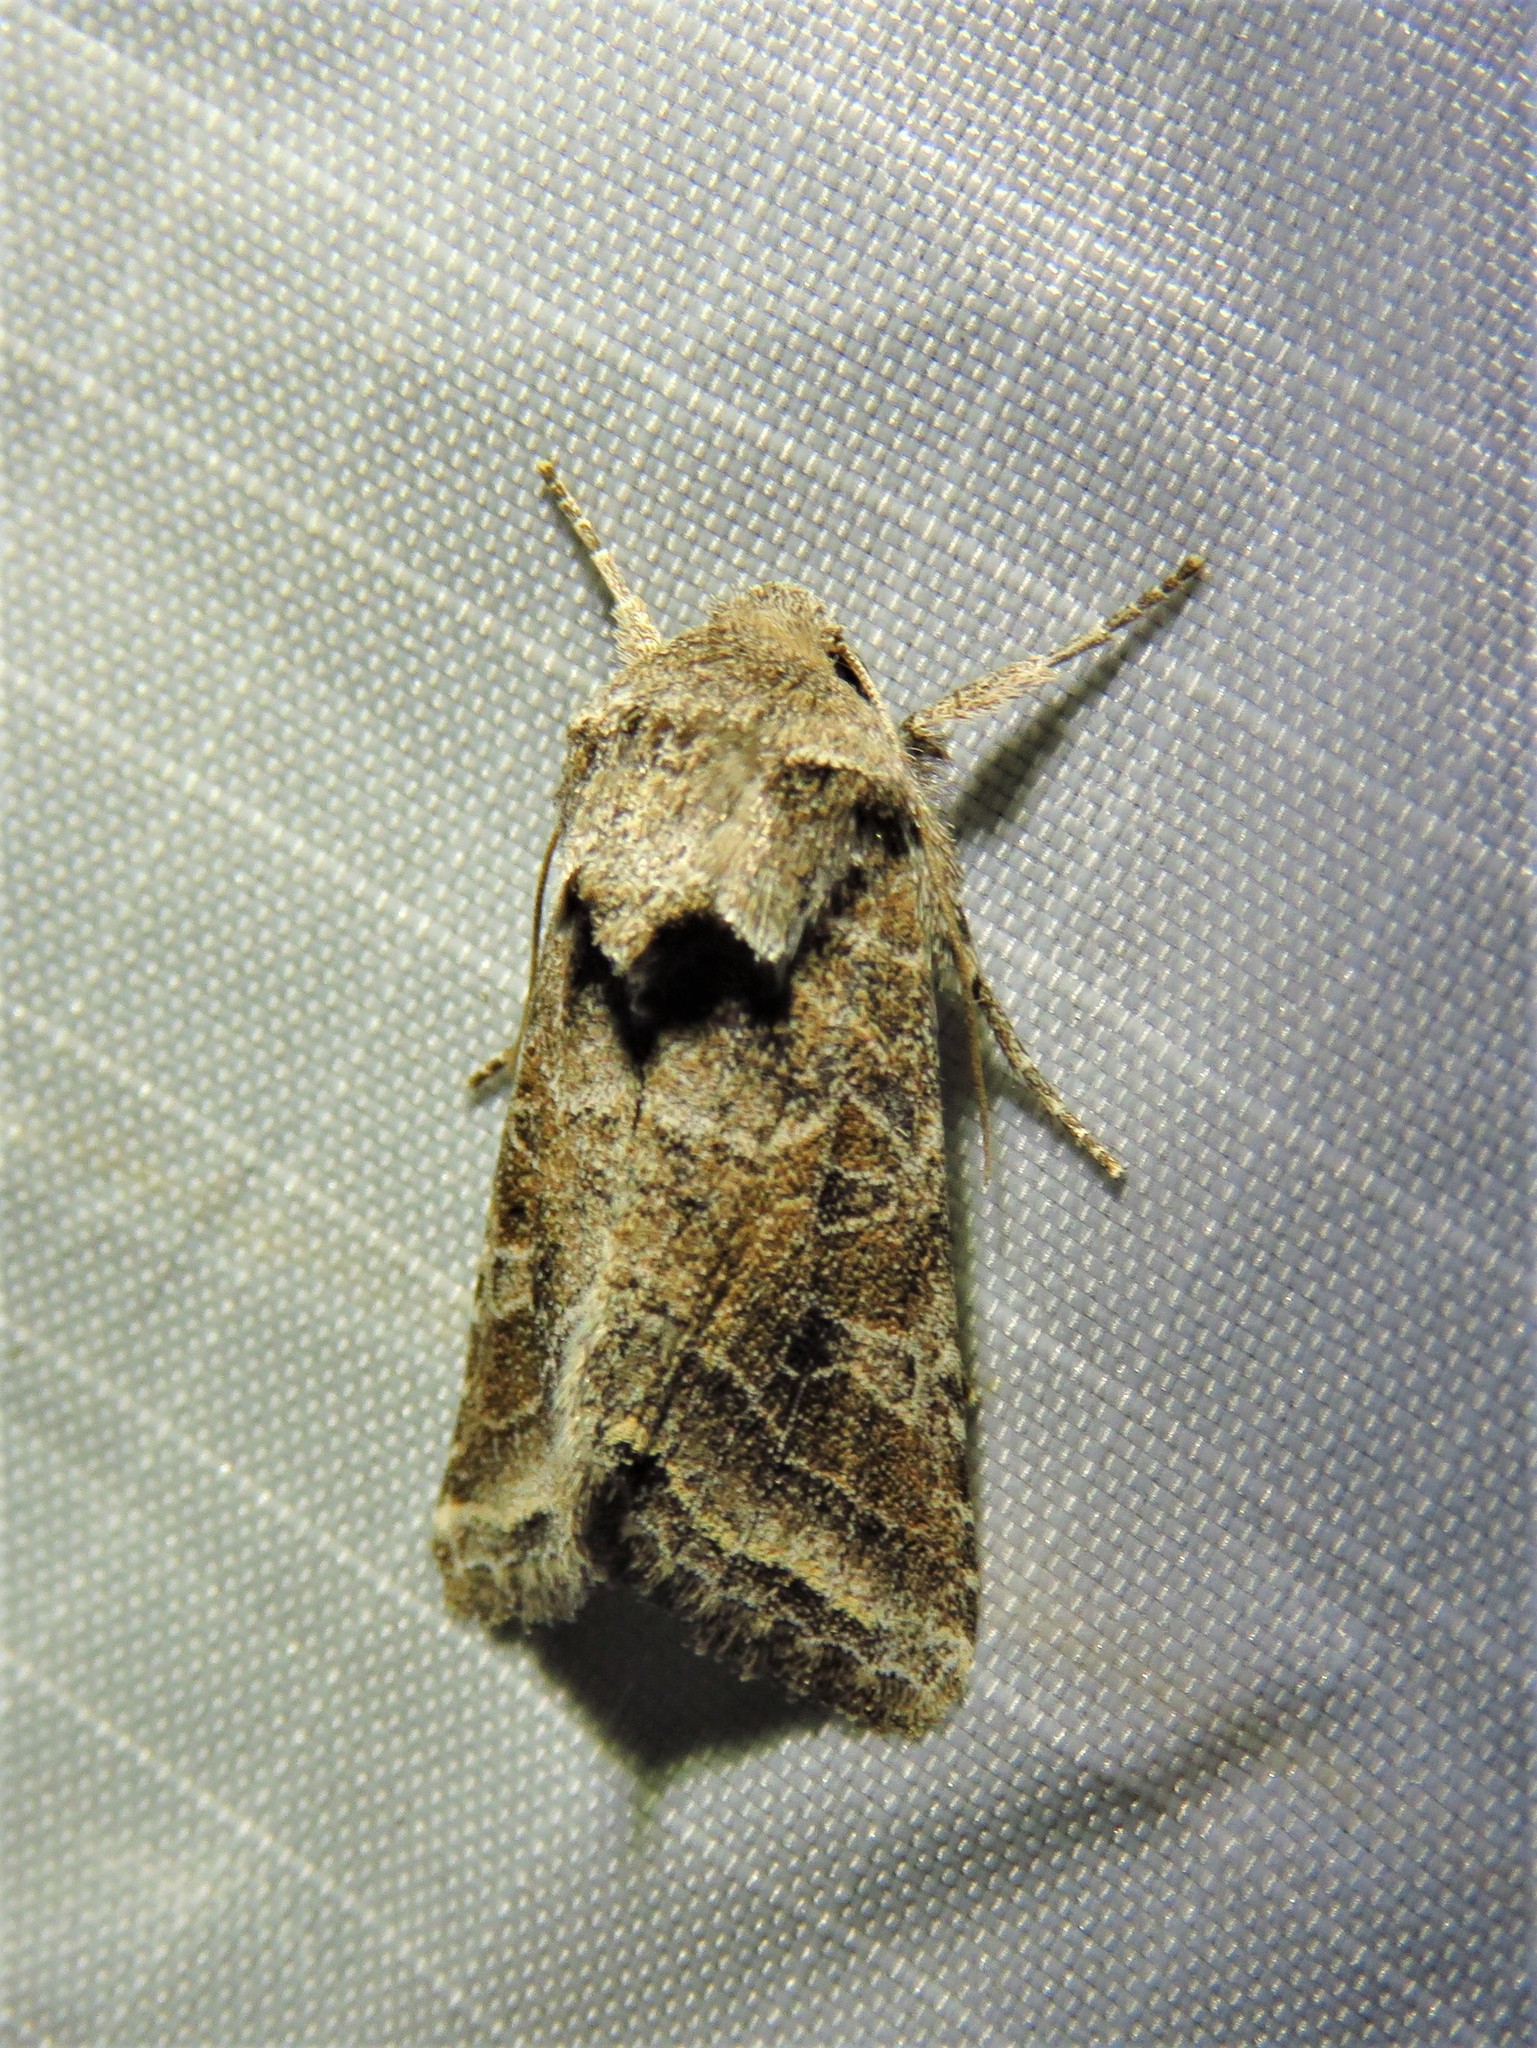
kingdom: Animalia
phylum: Arthropoda
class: Insecta
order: Lepidoptera
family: Noctuidae
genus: Lacinipolia
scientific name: Lacinipolia erecta
